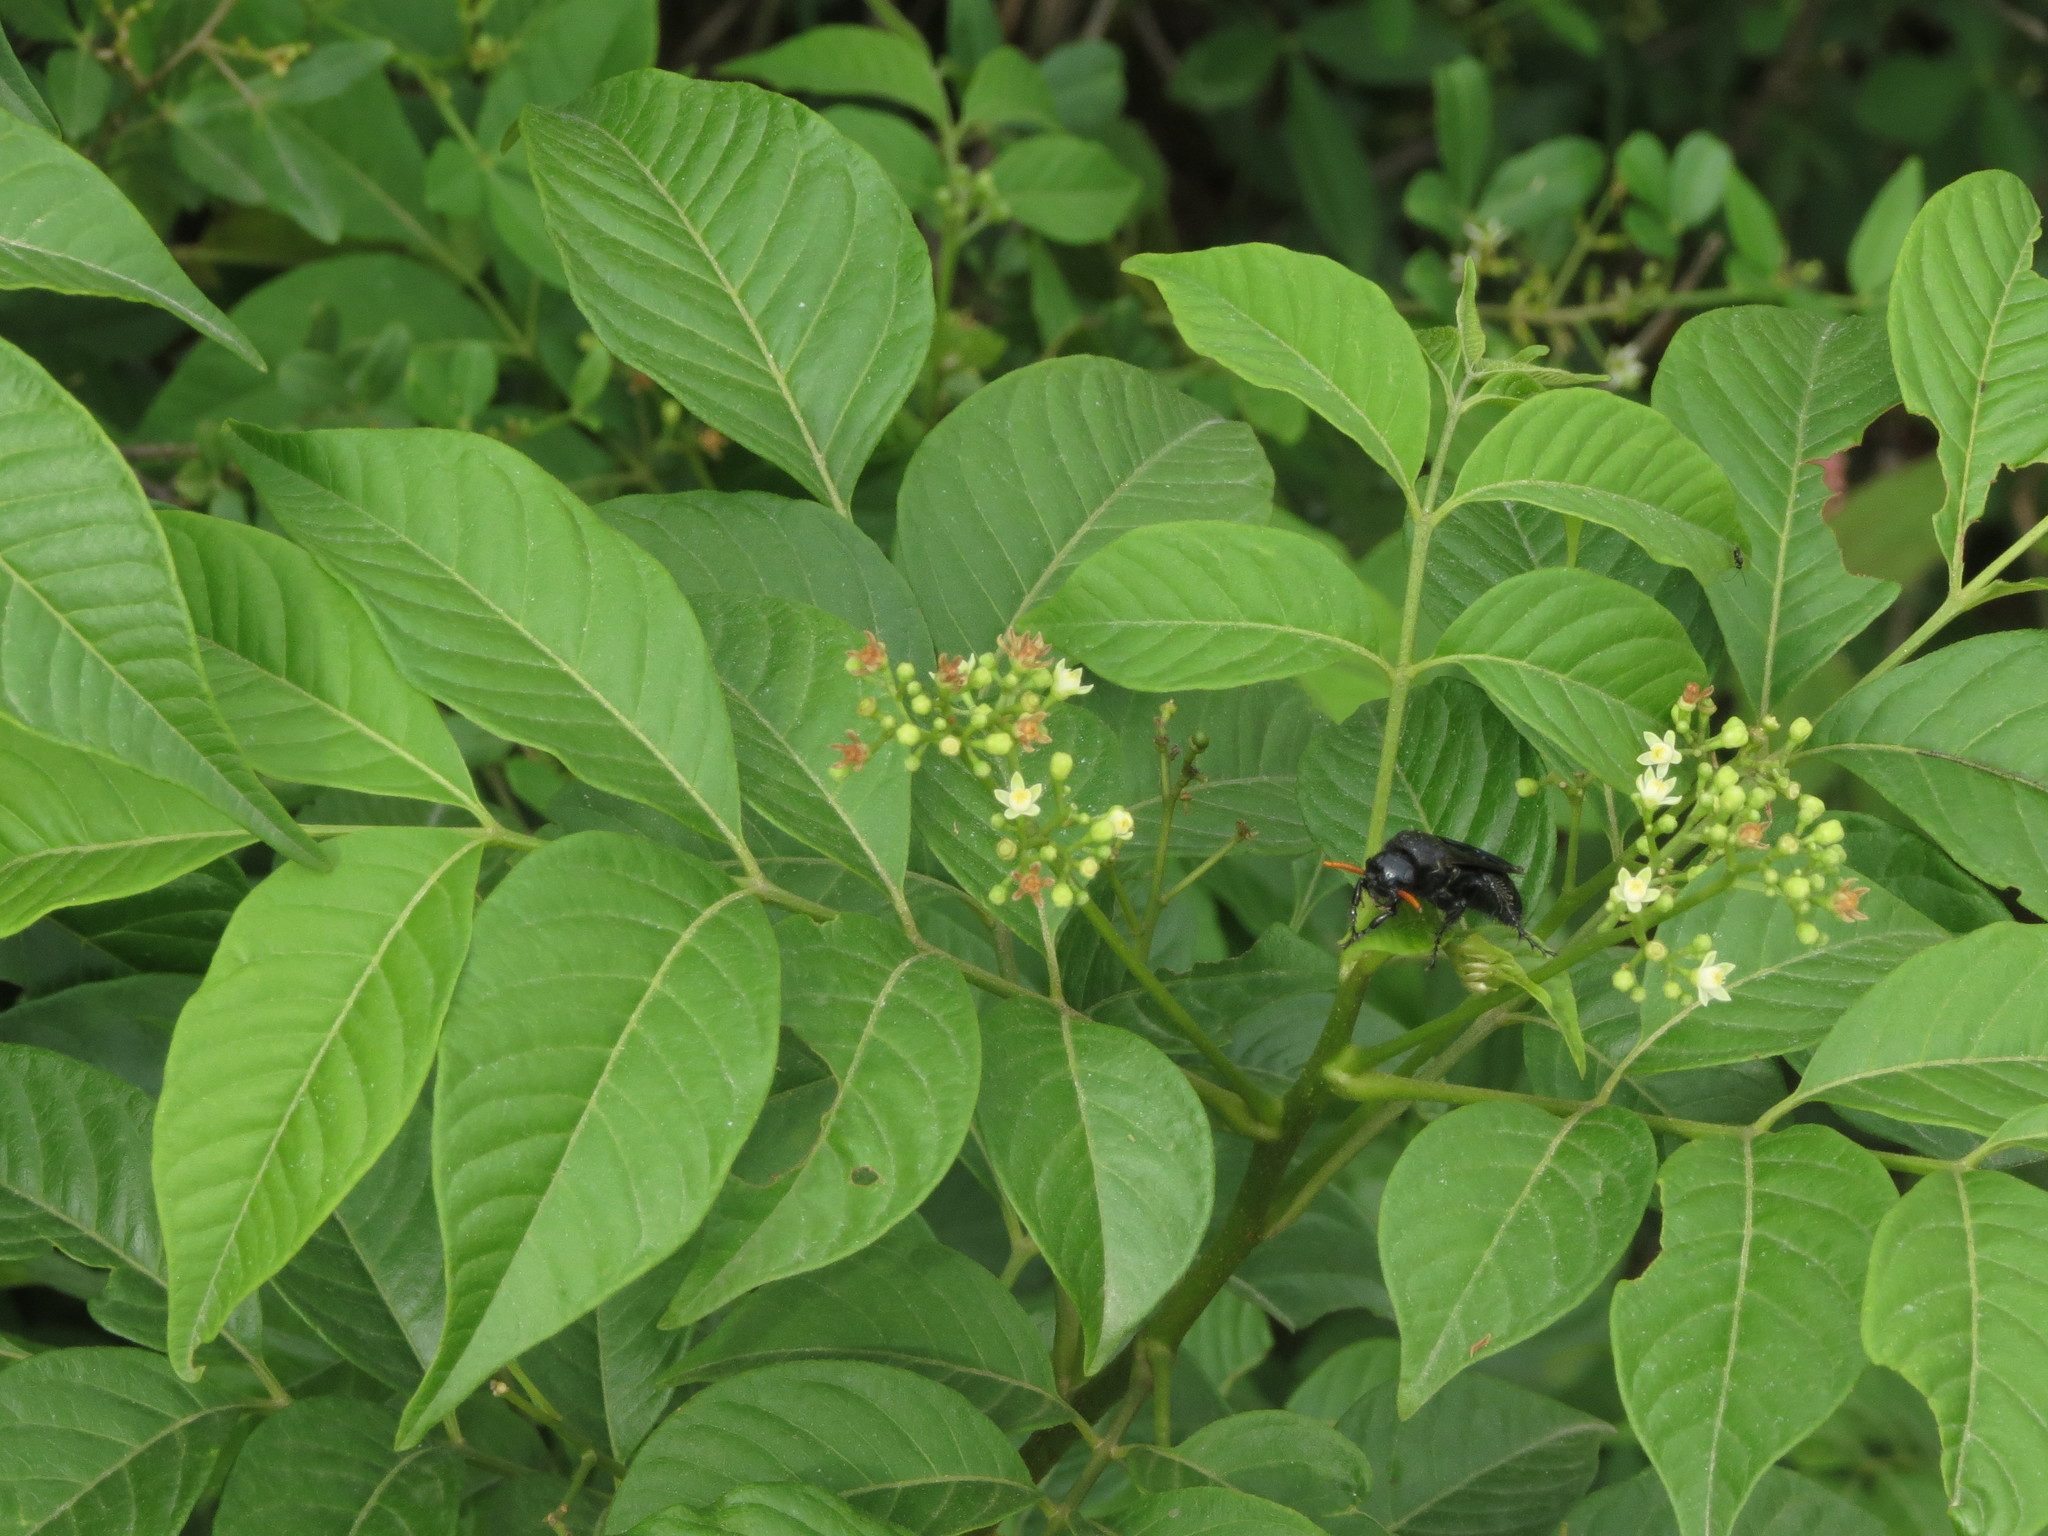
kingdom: Plantae
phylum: Tracheophyta
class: Magnoliopsida
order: Sapindales
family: Meliaceae
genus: Cipadessa
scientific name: Cipadessa baccifera
